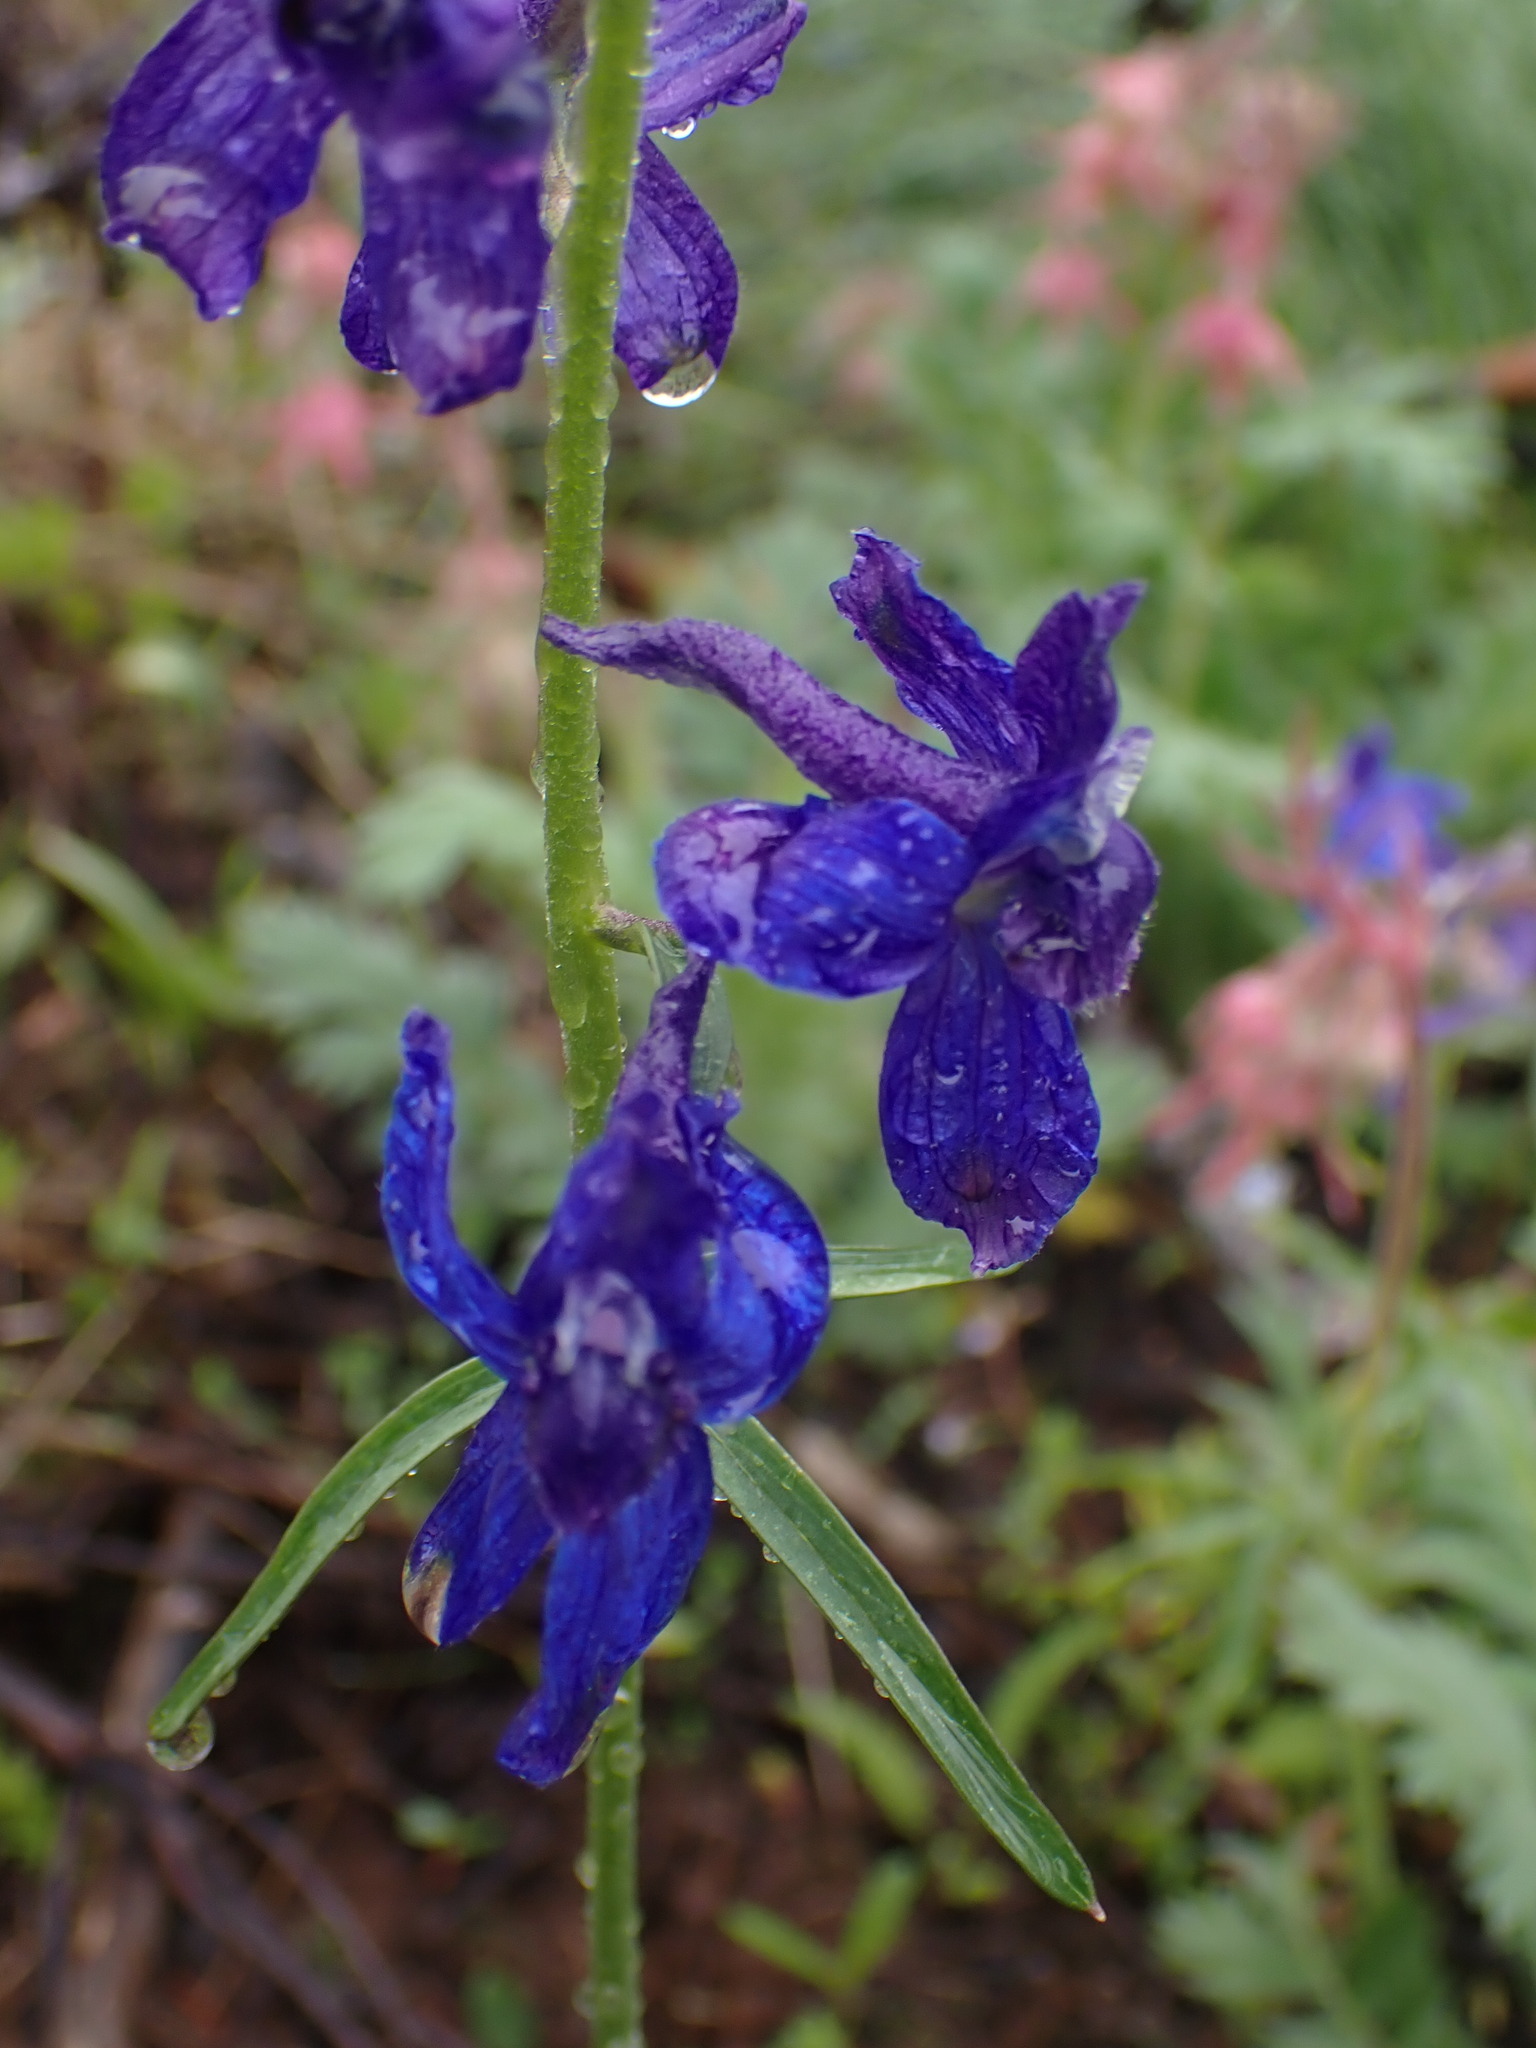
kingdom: Plantae
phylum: Tracheophyta
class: Magnoliopsida
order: Ranunculales
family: Ranunculaceae
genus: Delphinium
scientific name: Delphinium nuttallianum
